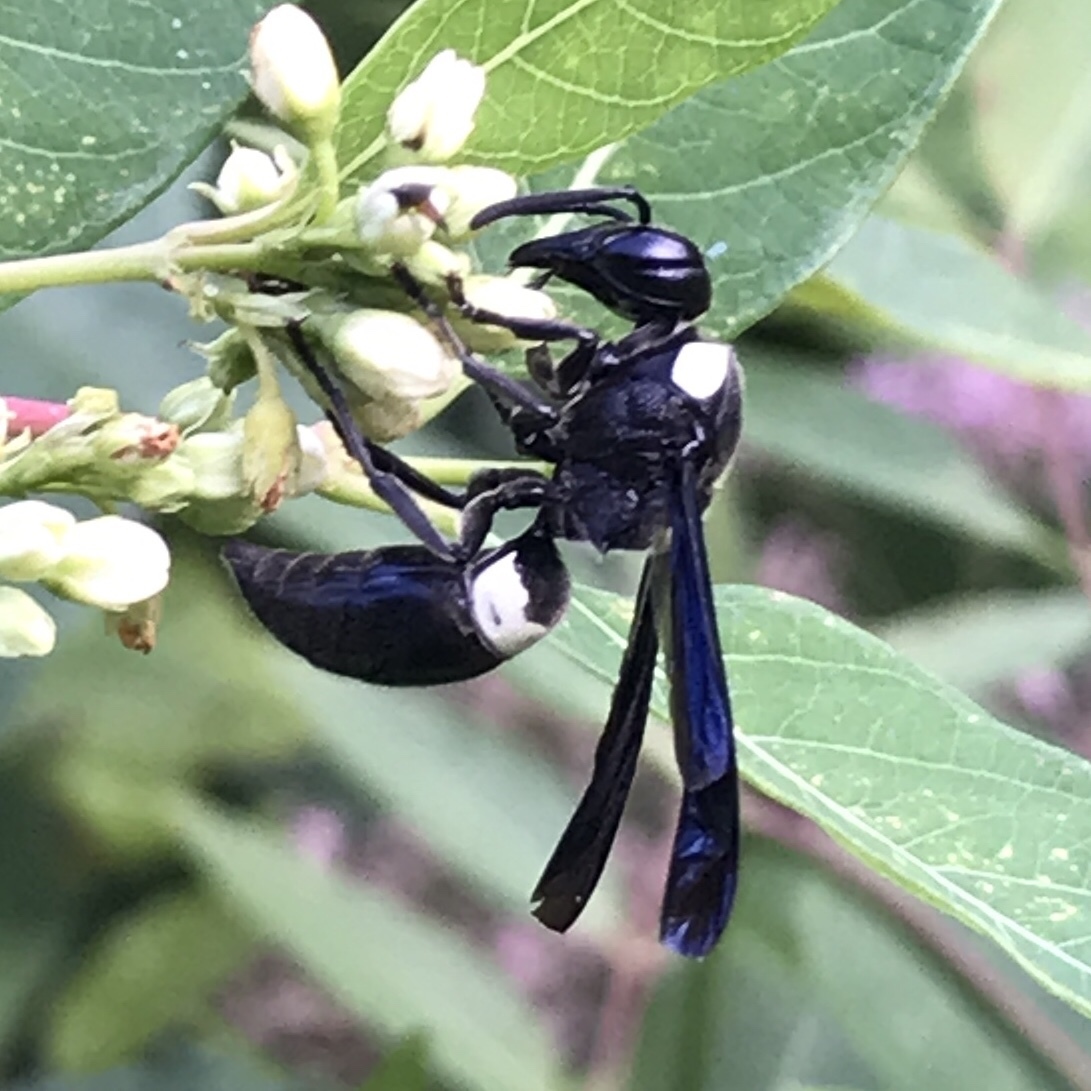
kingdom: Animalia
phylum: Arthropoda
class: Insecta
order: Hymenoptera
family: Eumenidae
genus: Monobia
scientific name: Monobia quadridens
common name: Four-toothed mason wasp
